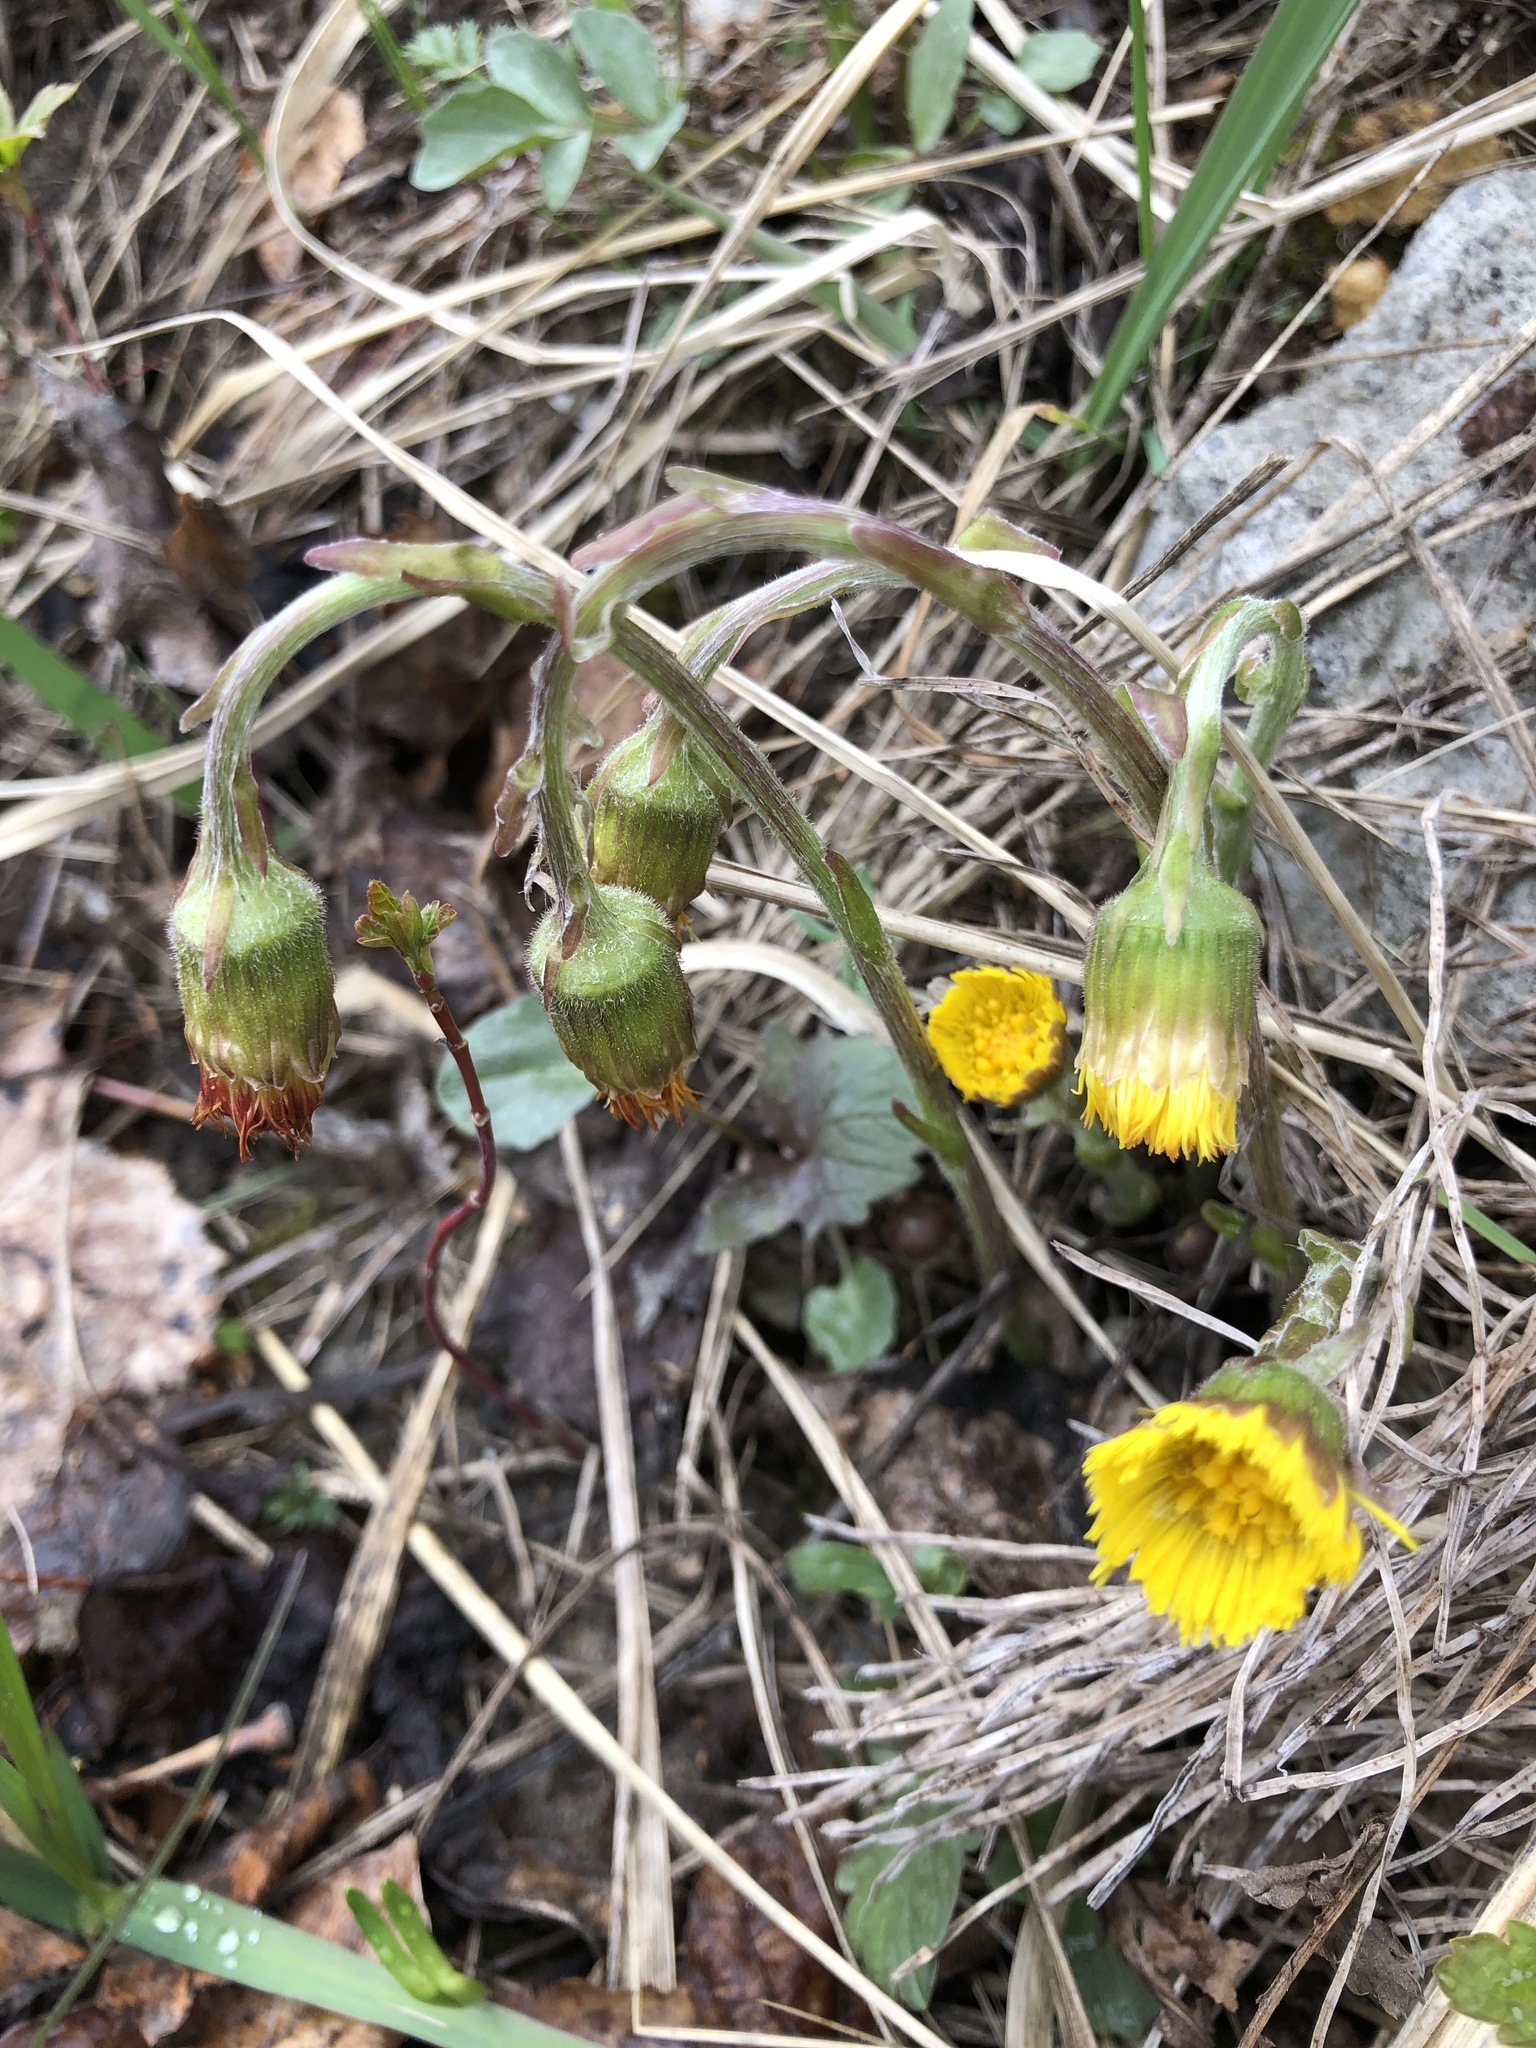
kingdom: Plantae
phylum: Tracheophyta
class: Magnoliopsida
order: Asterales
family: Asteraceae
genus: Tussilago
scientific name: Tussilago farfara
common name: Coltsfoot
